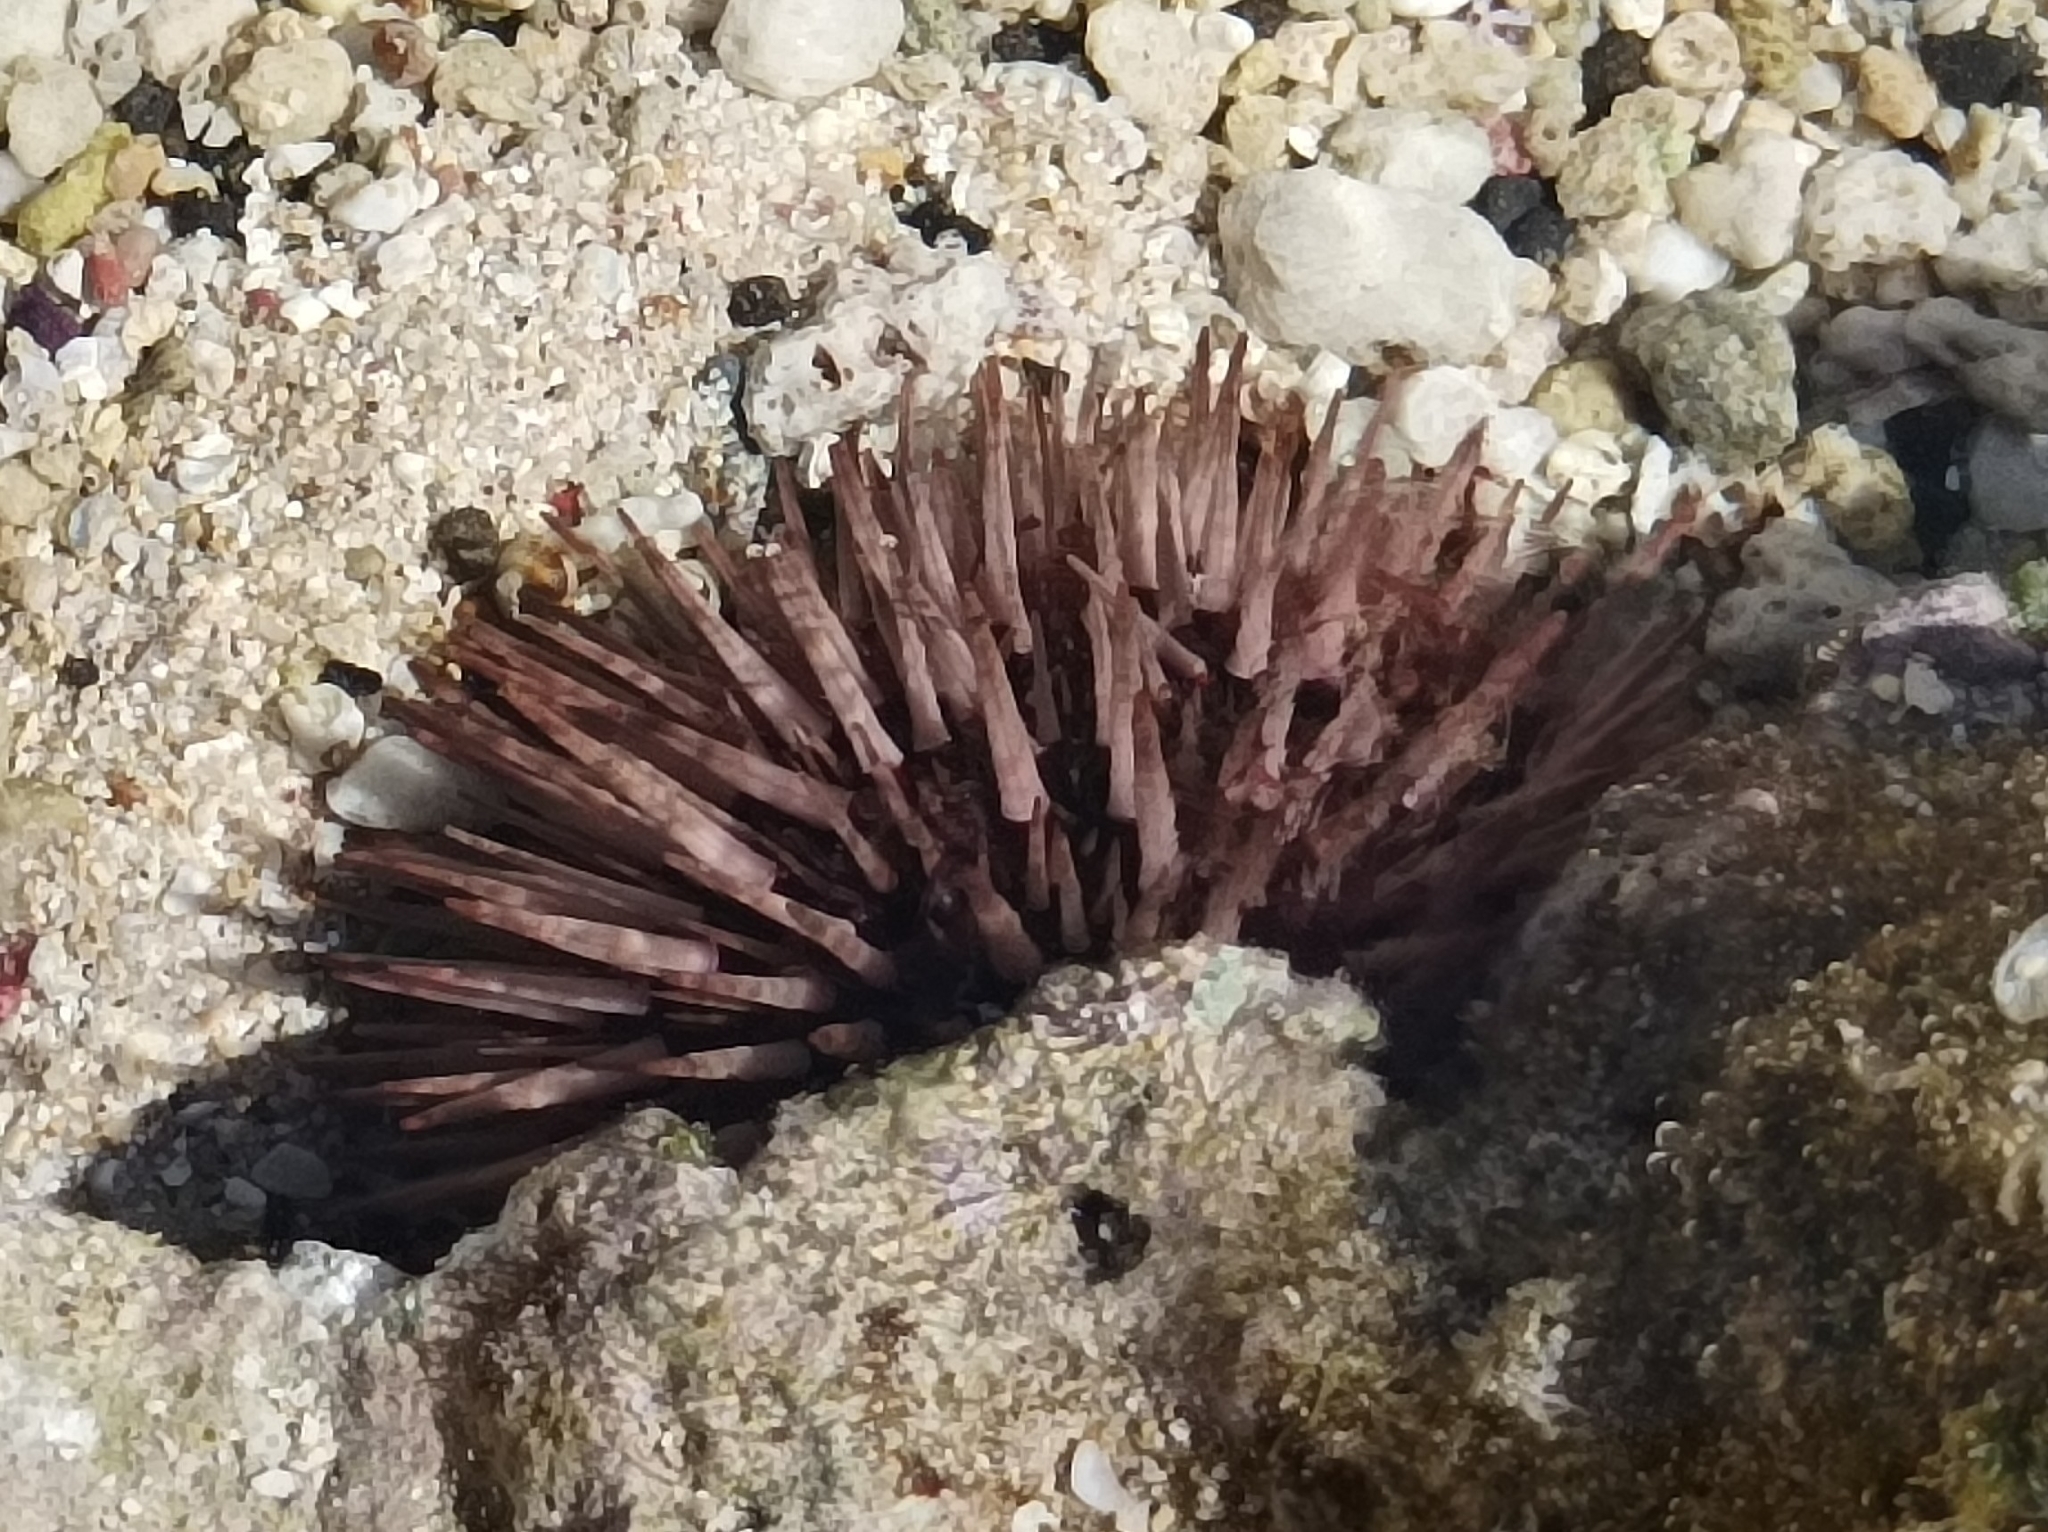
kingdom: Animalia
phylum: Echinodermata
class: Echinoidea
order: Camarodonta
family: Echinometridae
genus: Echinometra
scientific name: Echinometra mathaei
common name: Rock-boring urchin
